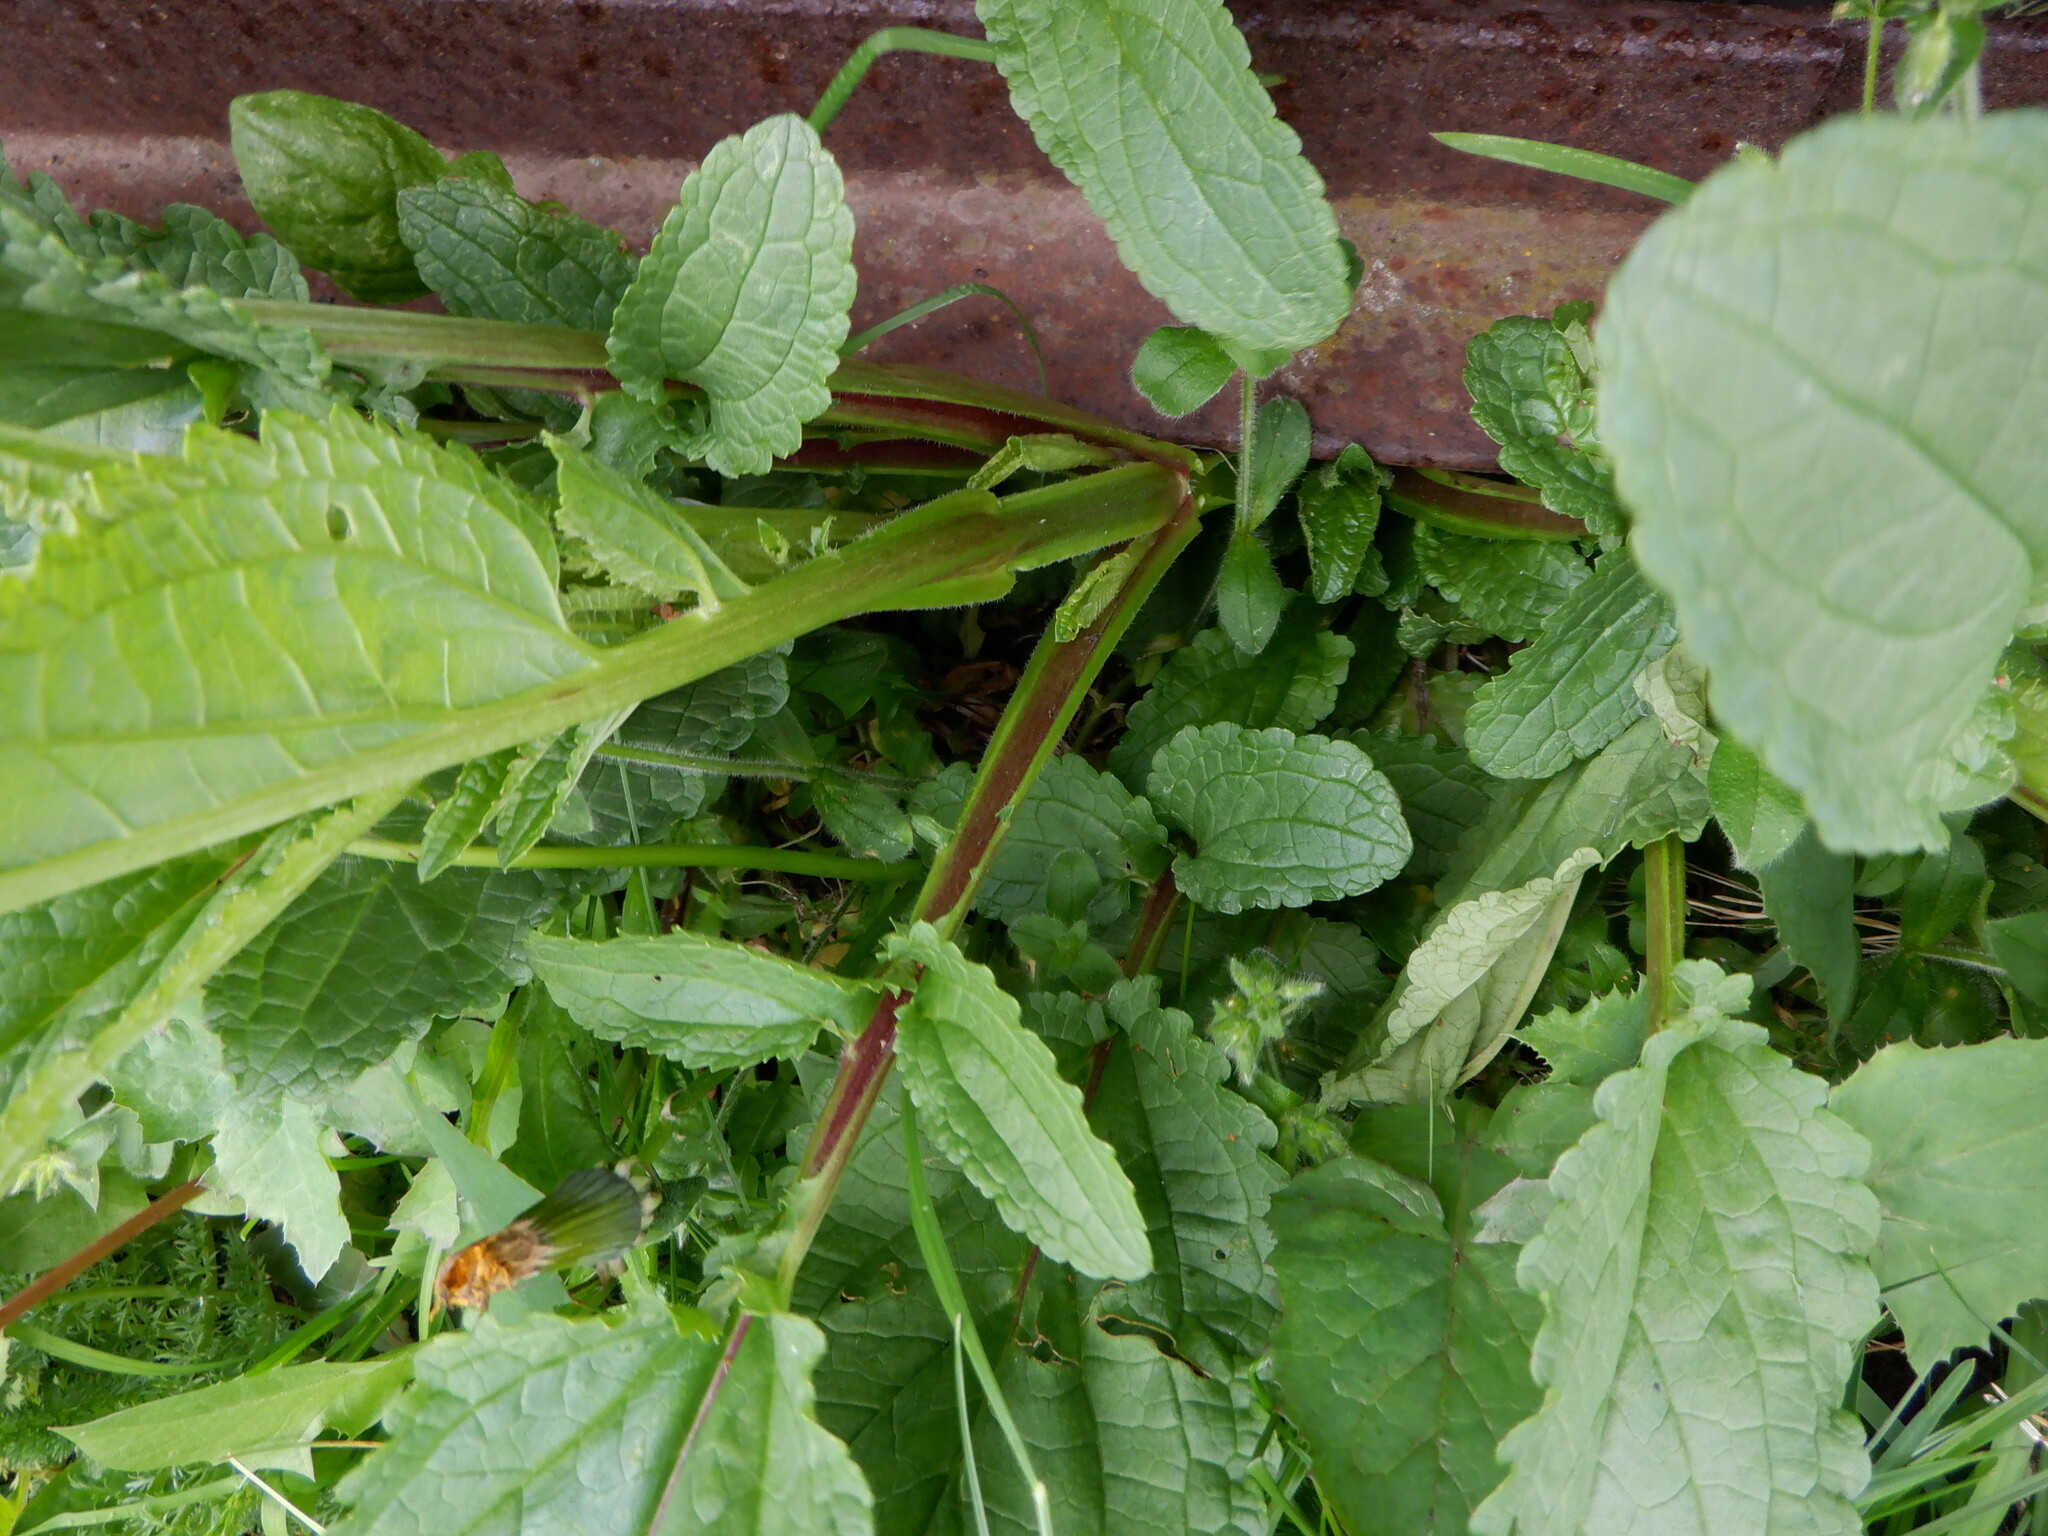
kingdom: Plantae
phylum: Tracheophyta
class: Magnoliopsida
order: Lamiales
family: Scrophulariaceae
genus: Scrophularia
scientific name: Scrophularia auriculata
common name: Water betony
